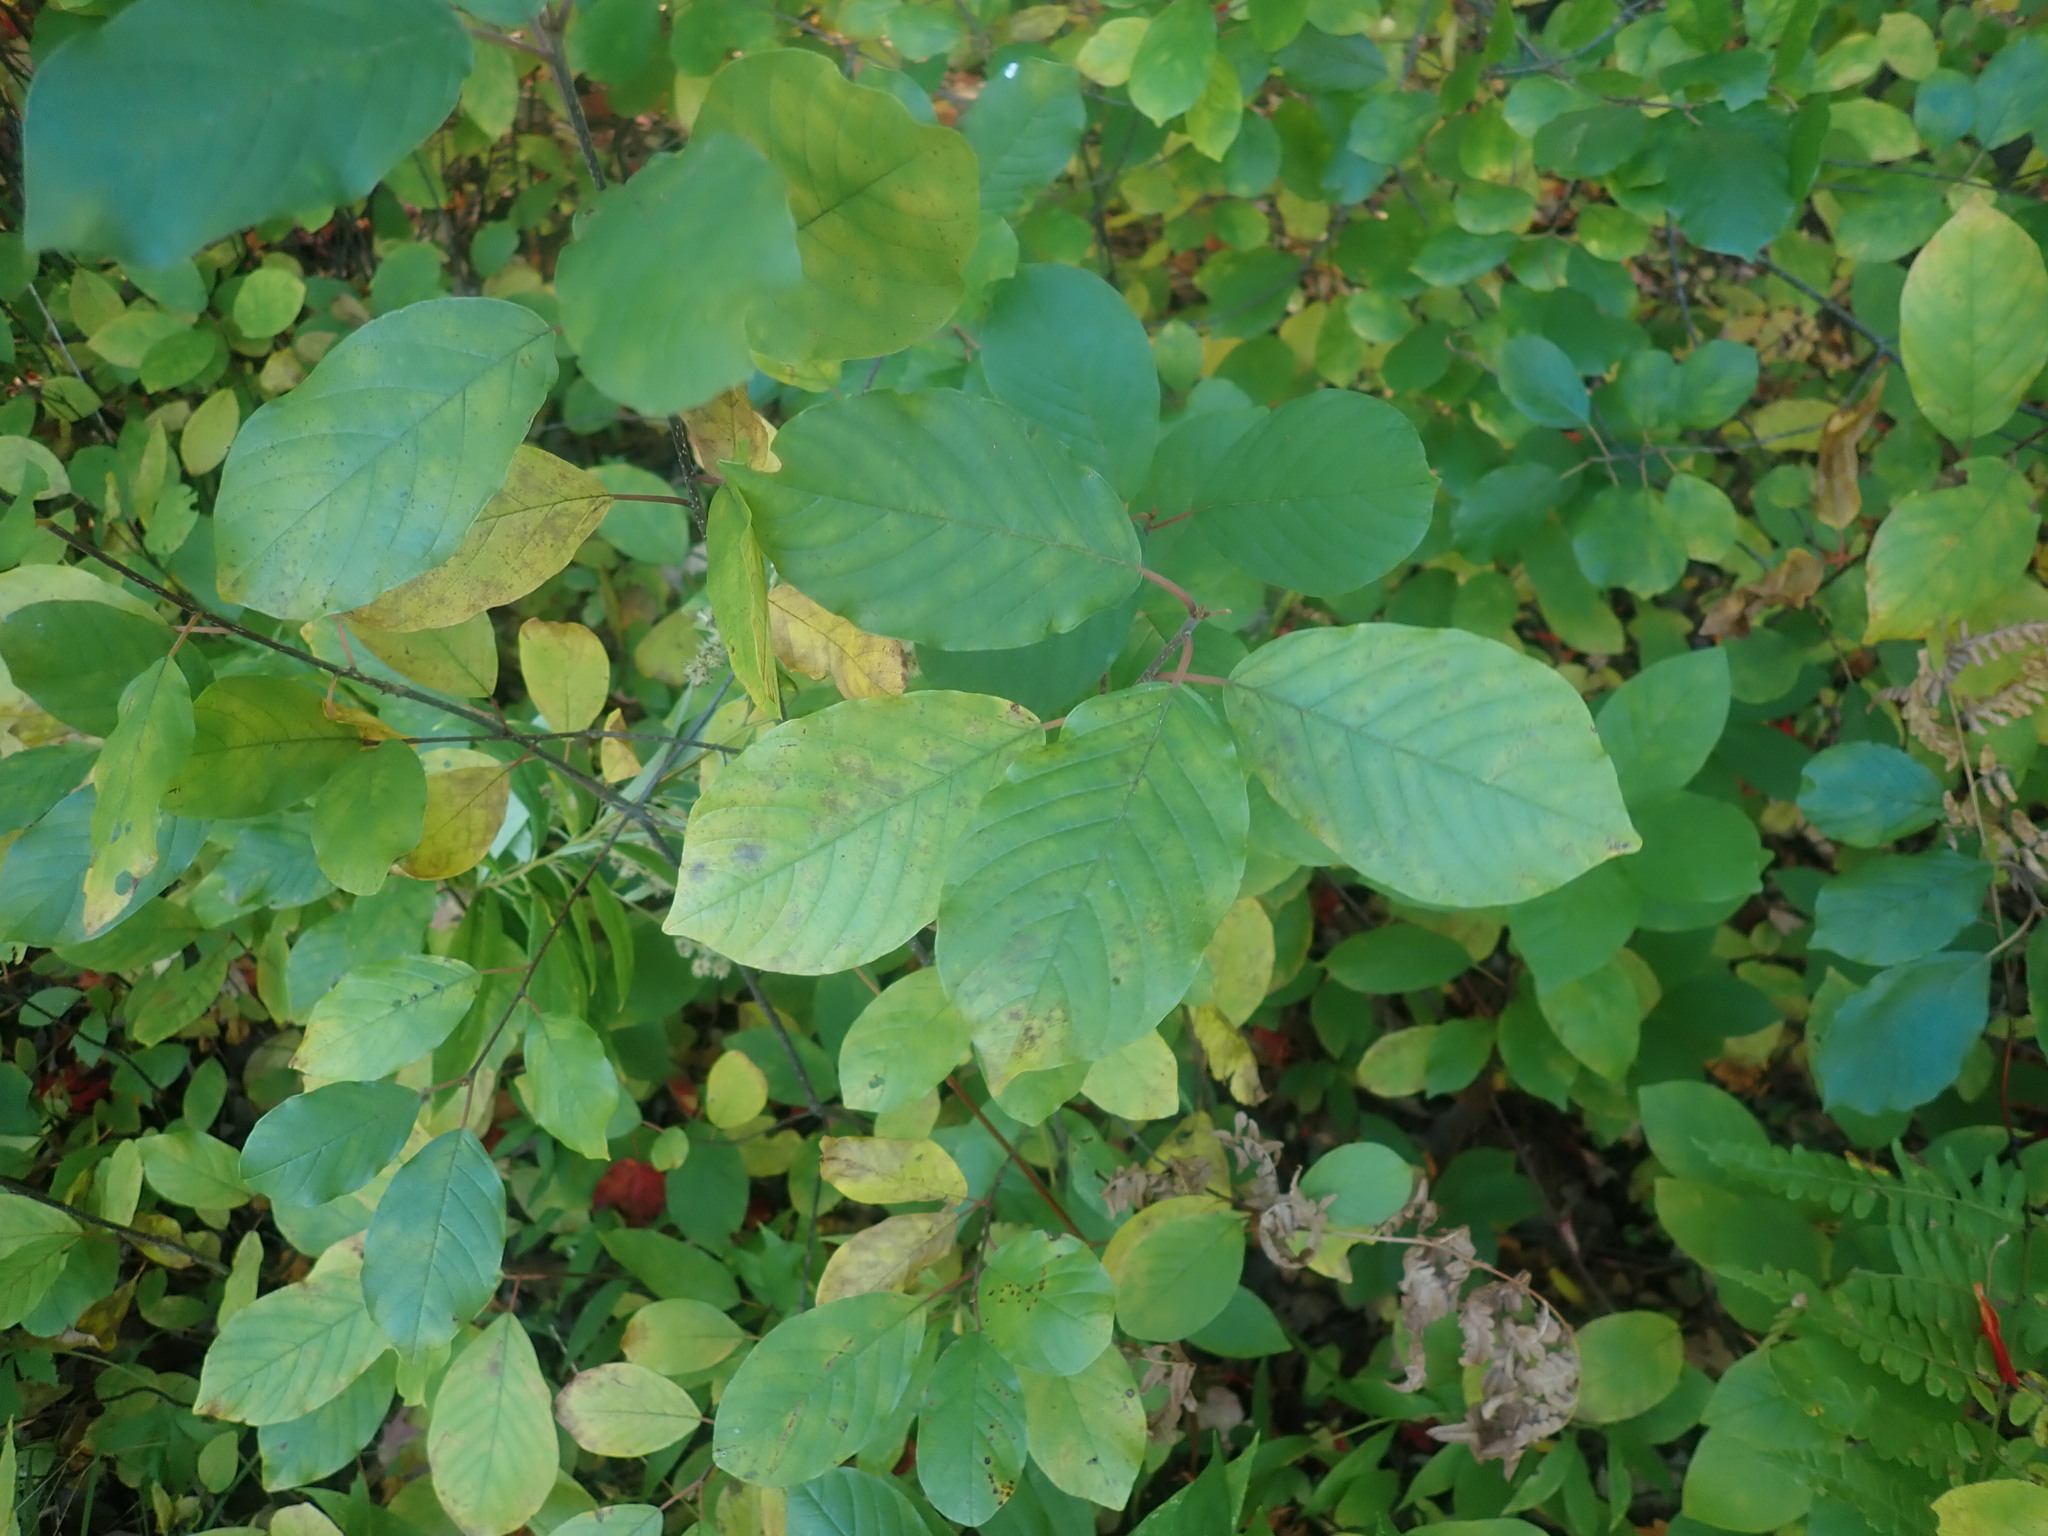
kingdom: Plantae
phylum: Tracheophyta
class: Magnoliopsida
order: Rosales
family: Rhamnaceae
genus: Frangula
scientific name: Frangula alnus
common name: Alder buckthorn
